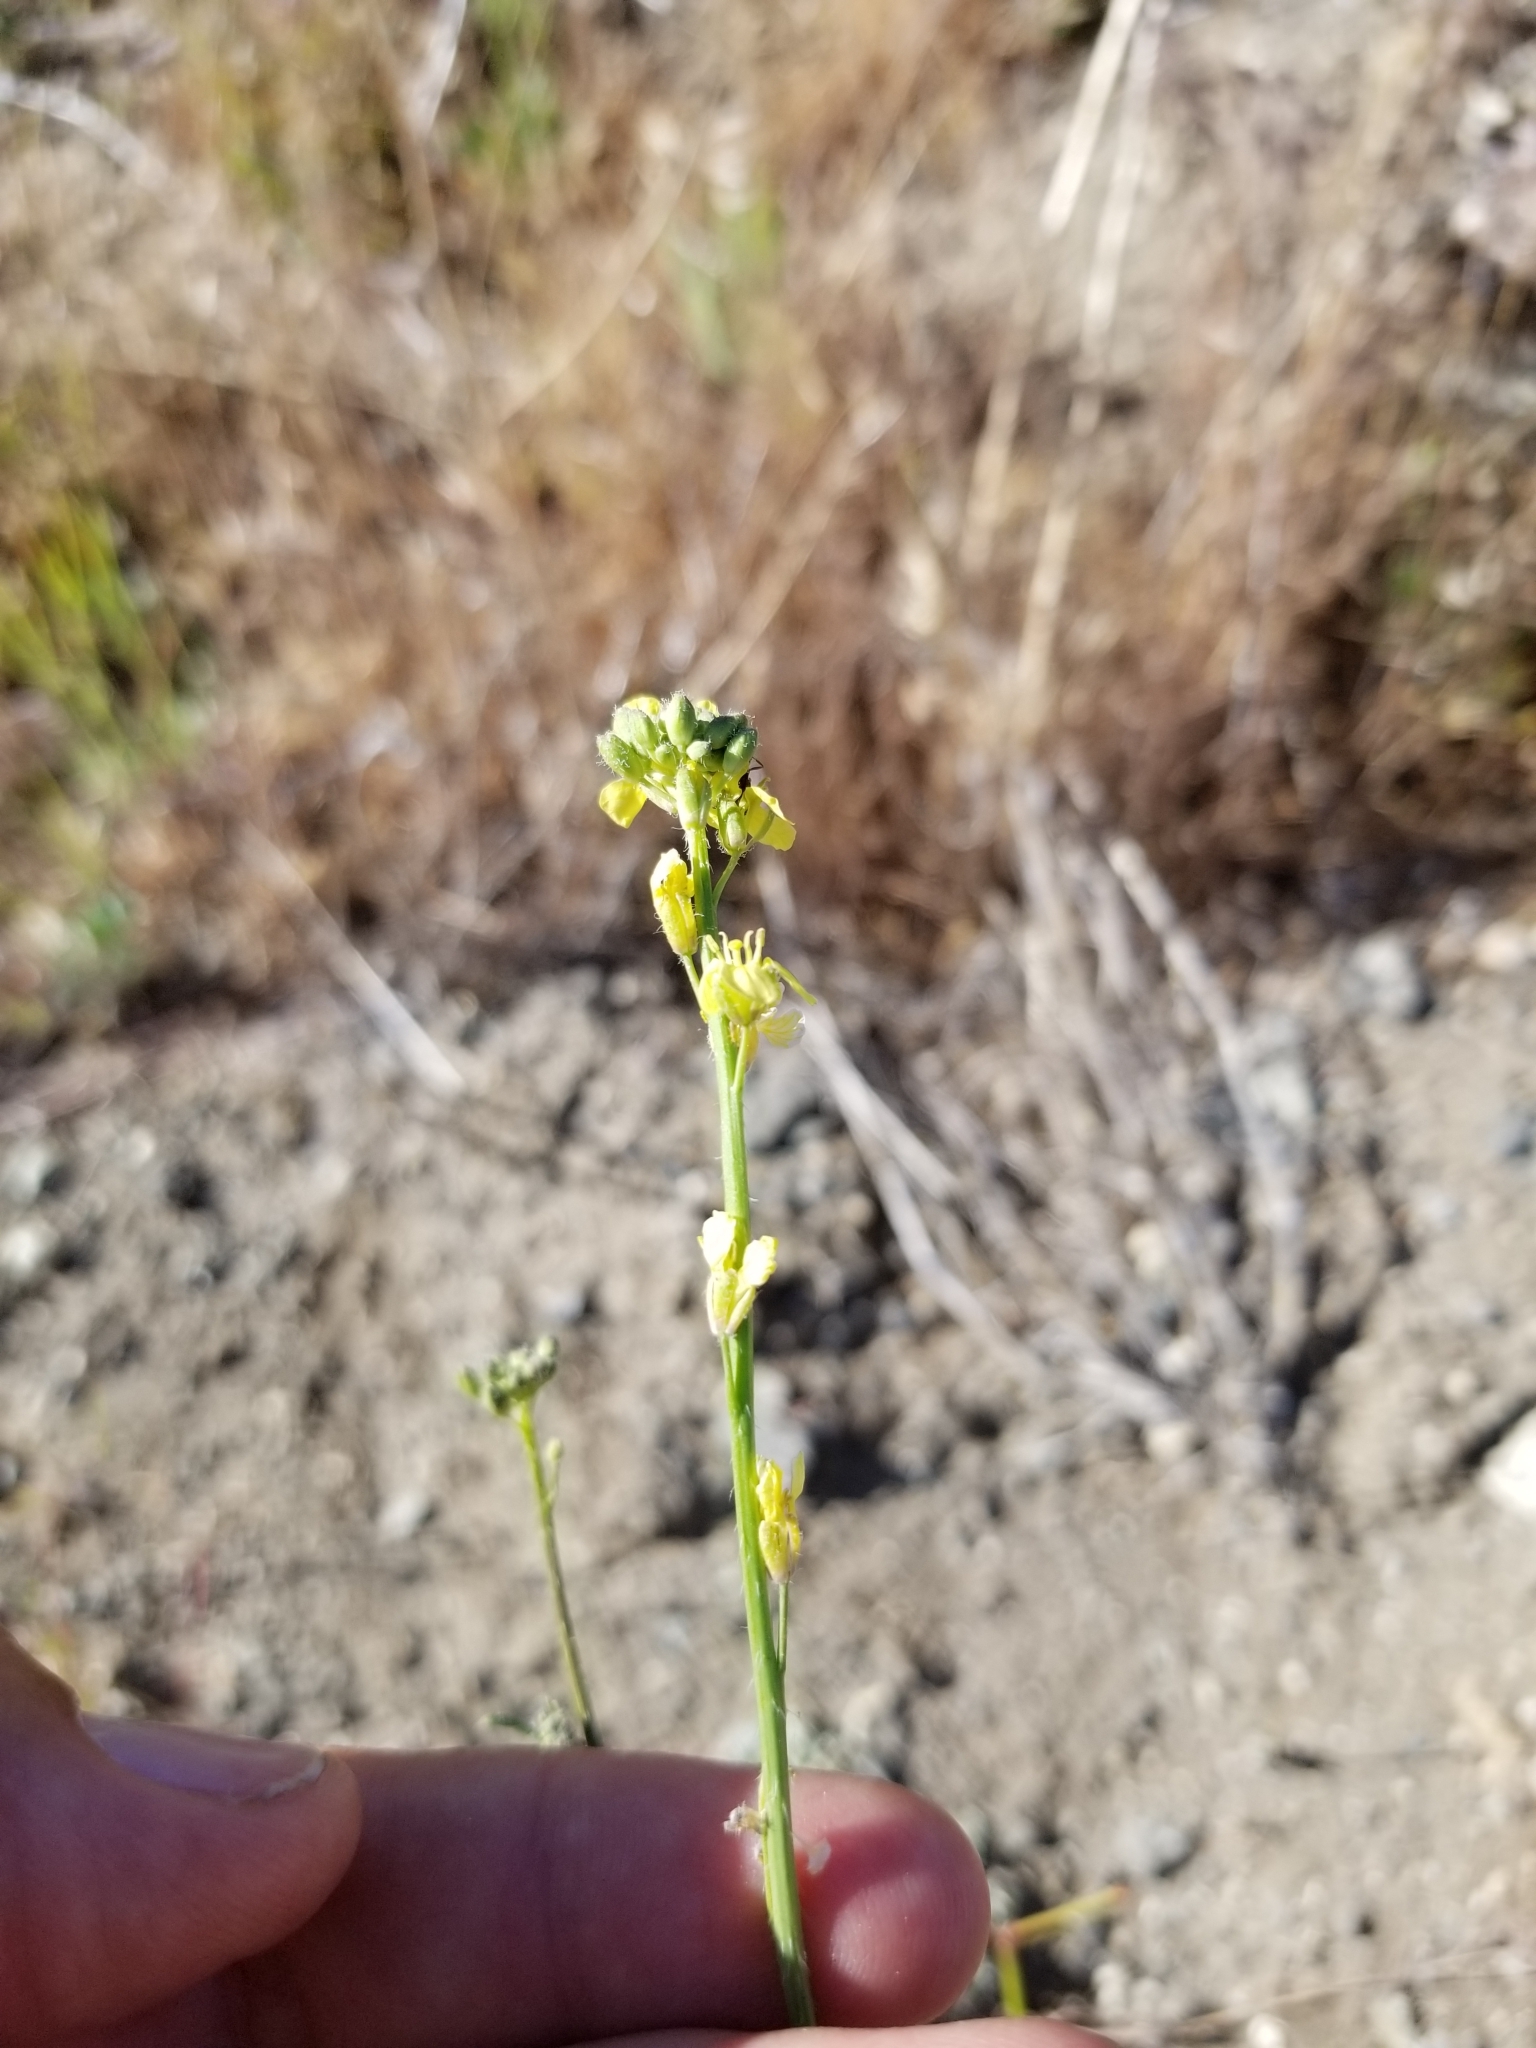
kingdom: Plantae
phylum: Tracheophyta
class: Magnoliopsida
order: Brassicales
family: Brassicaceae
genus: Hirschfeldia
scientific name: Hirschfeldia incana
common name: Hoary mustard
